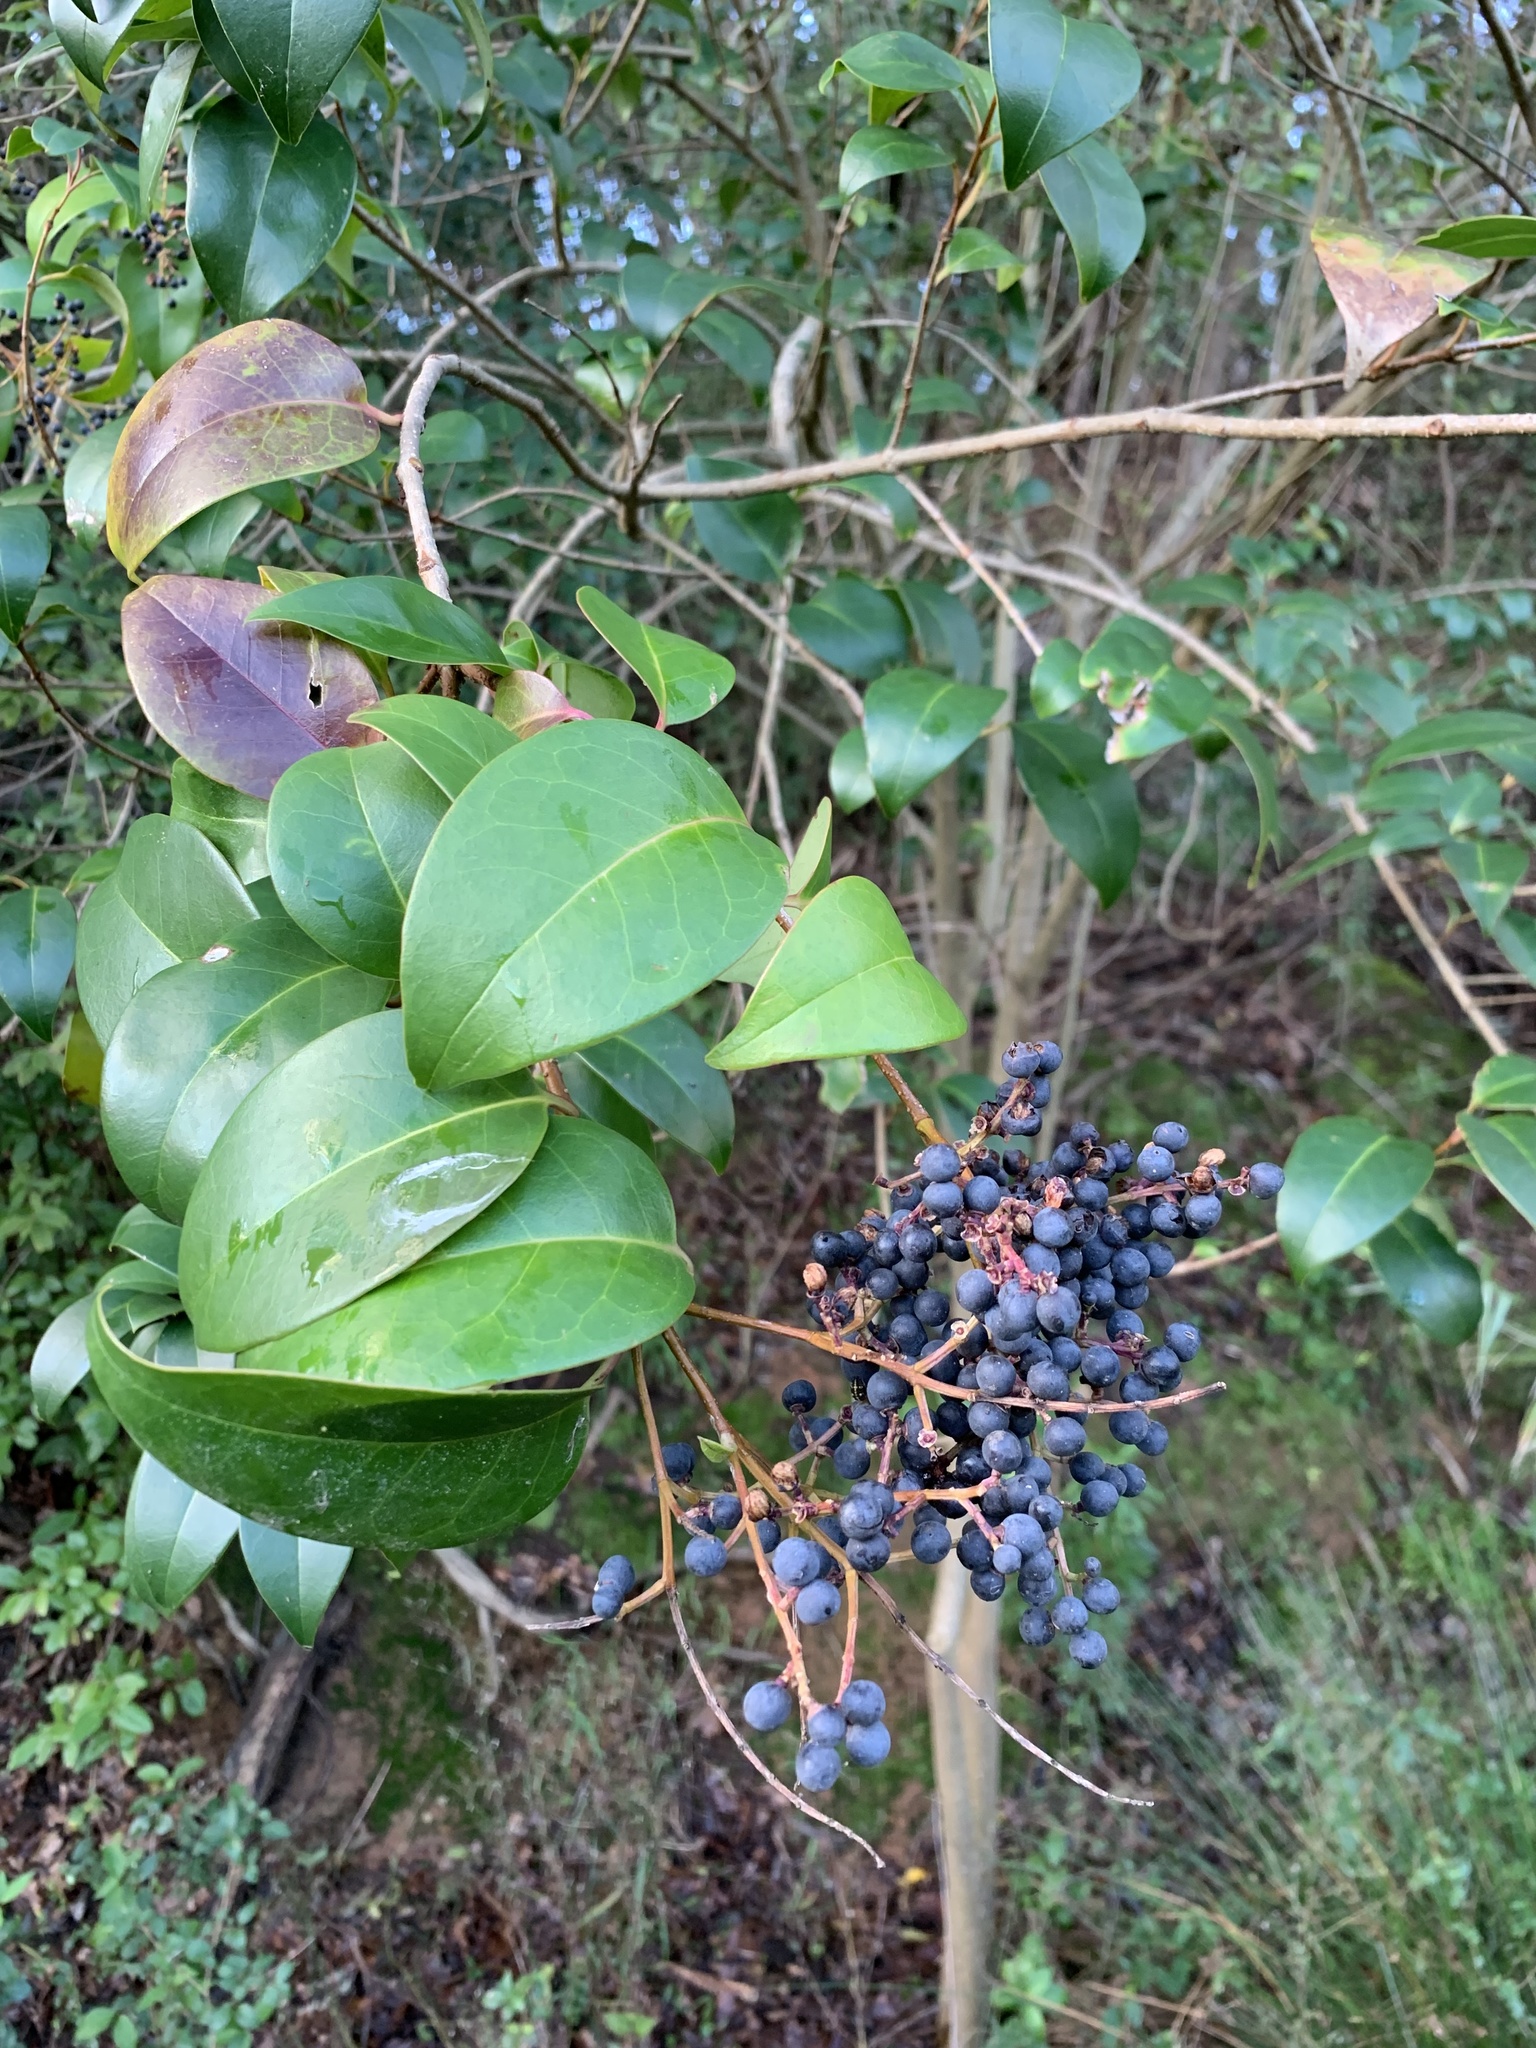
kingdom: Plantae
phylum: Tracheophyta
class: Magnoliopsida
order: Lamiales
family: Oleaceae
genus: Ligustrum
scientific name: Ligustrum lucidum
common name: Glossy privet
